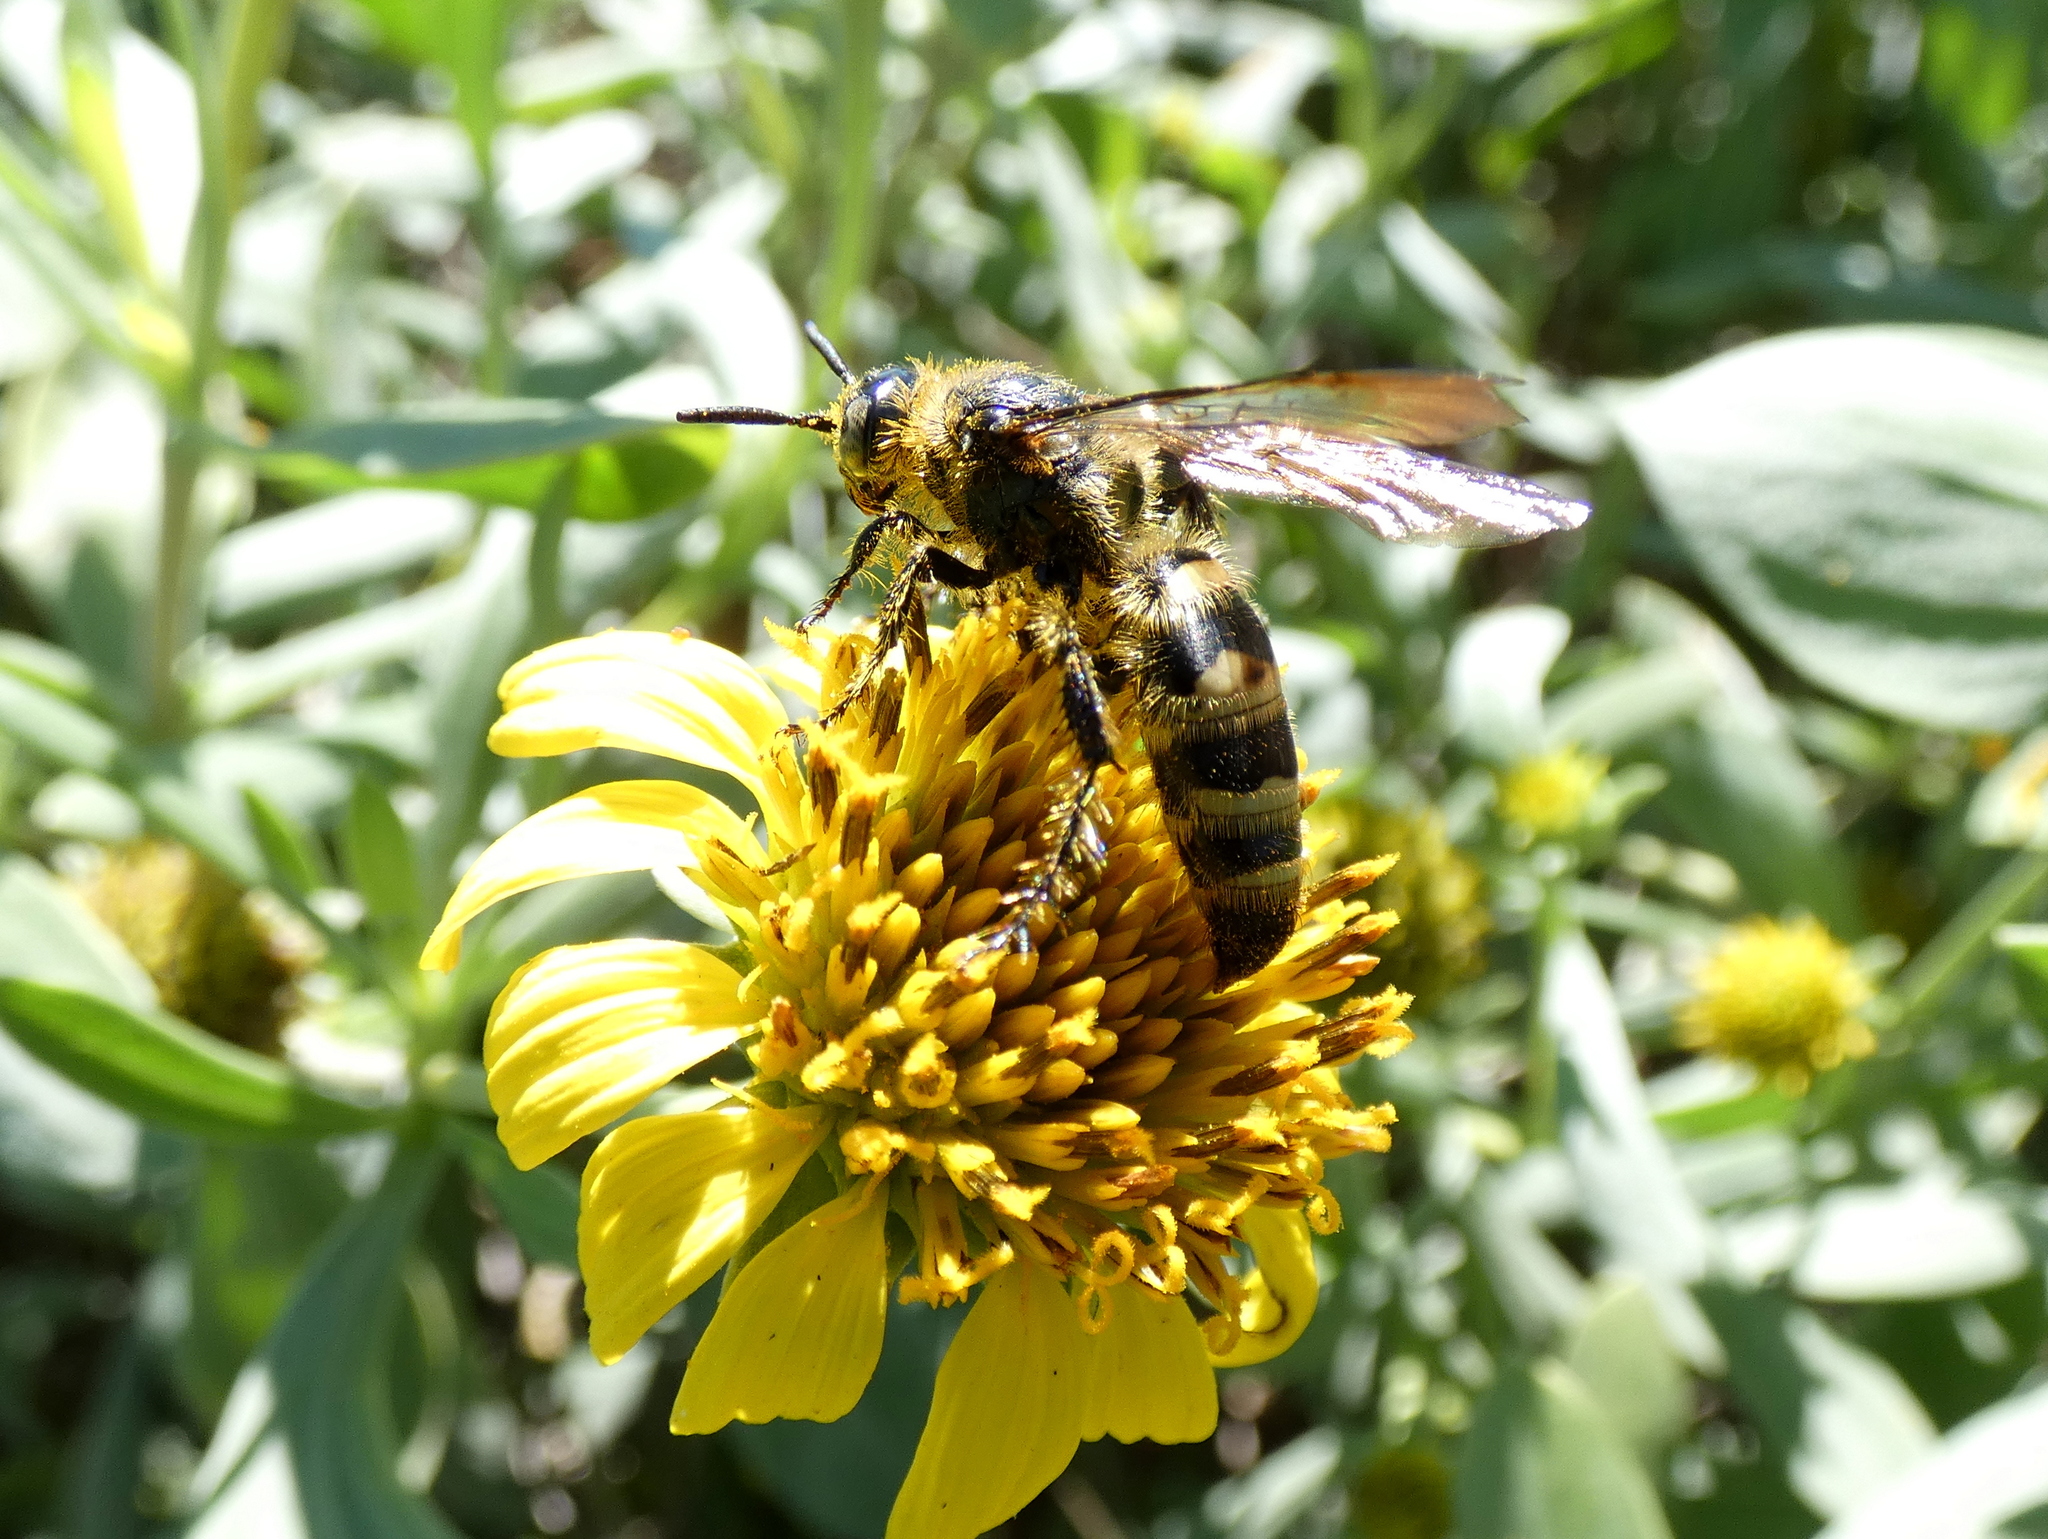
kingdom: Animalia
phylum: Arthropoda
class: Insecta
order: Hymenoptera
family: Scoliidae
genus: Dielis
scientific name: Dielis
